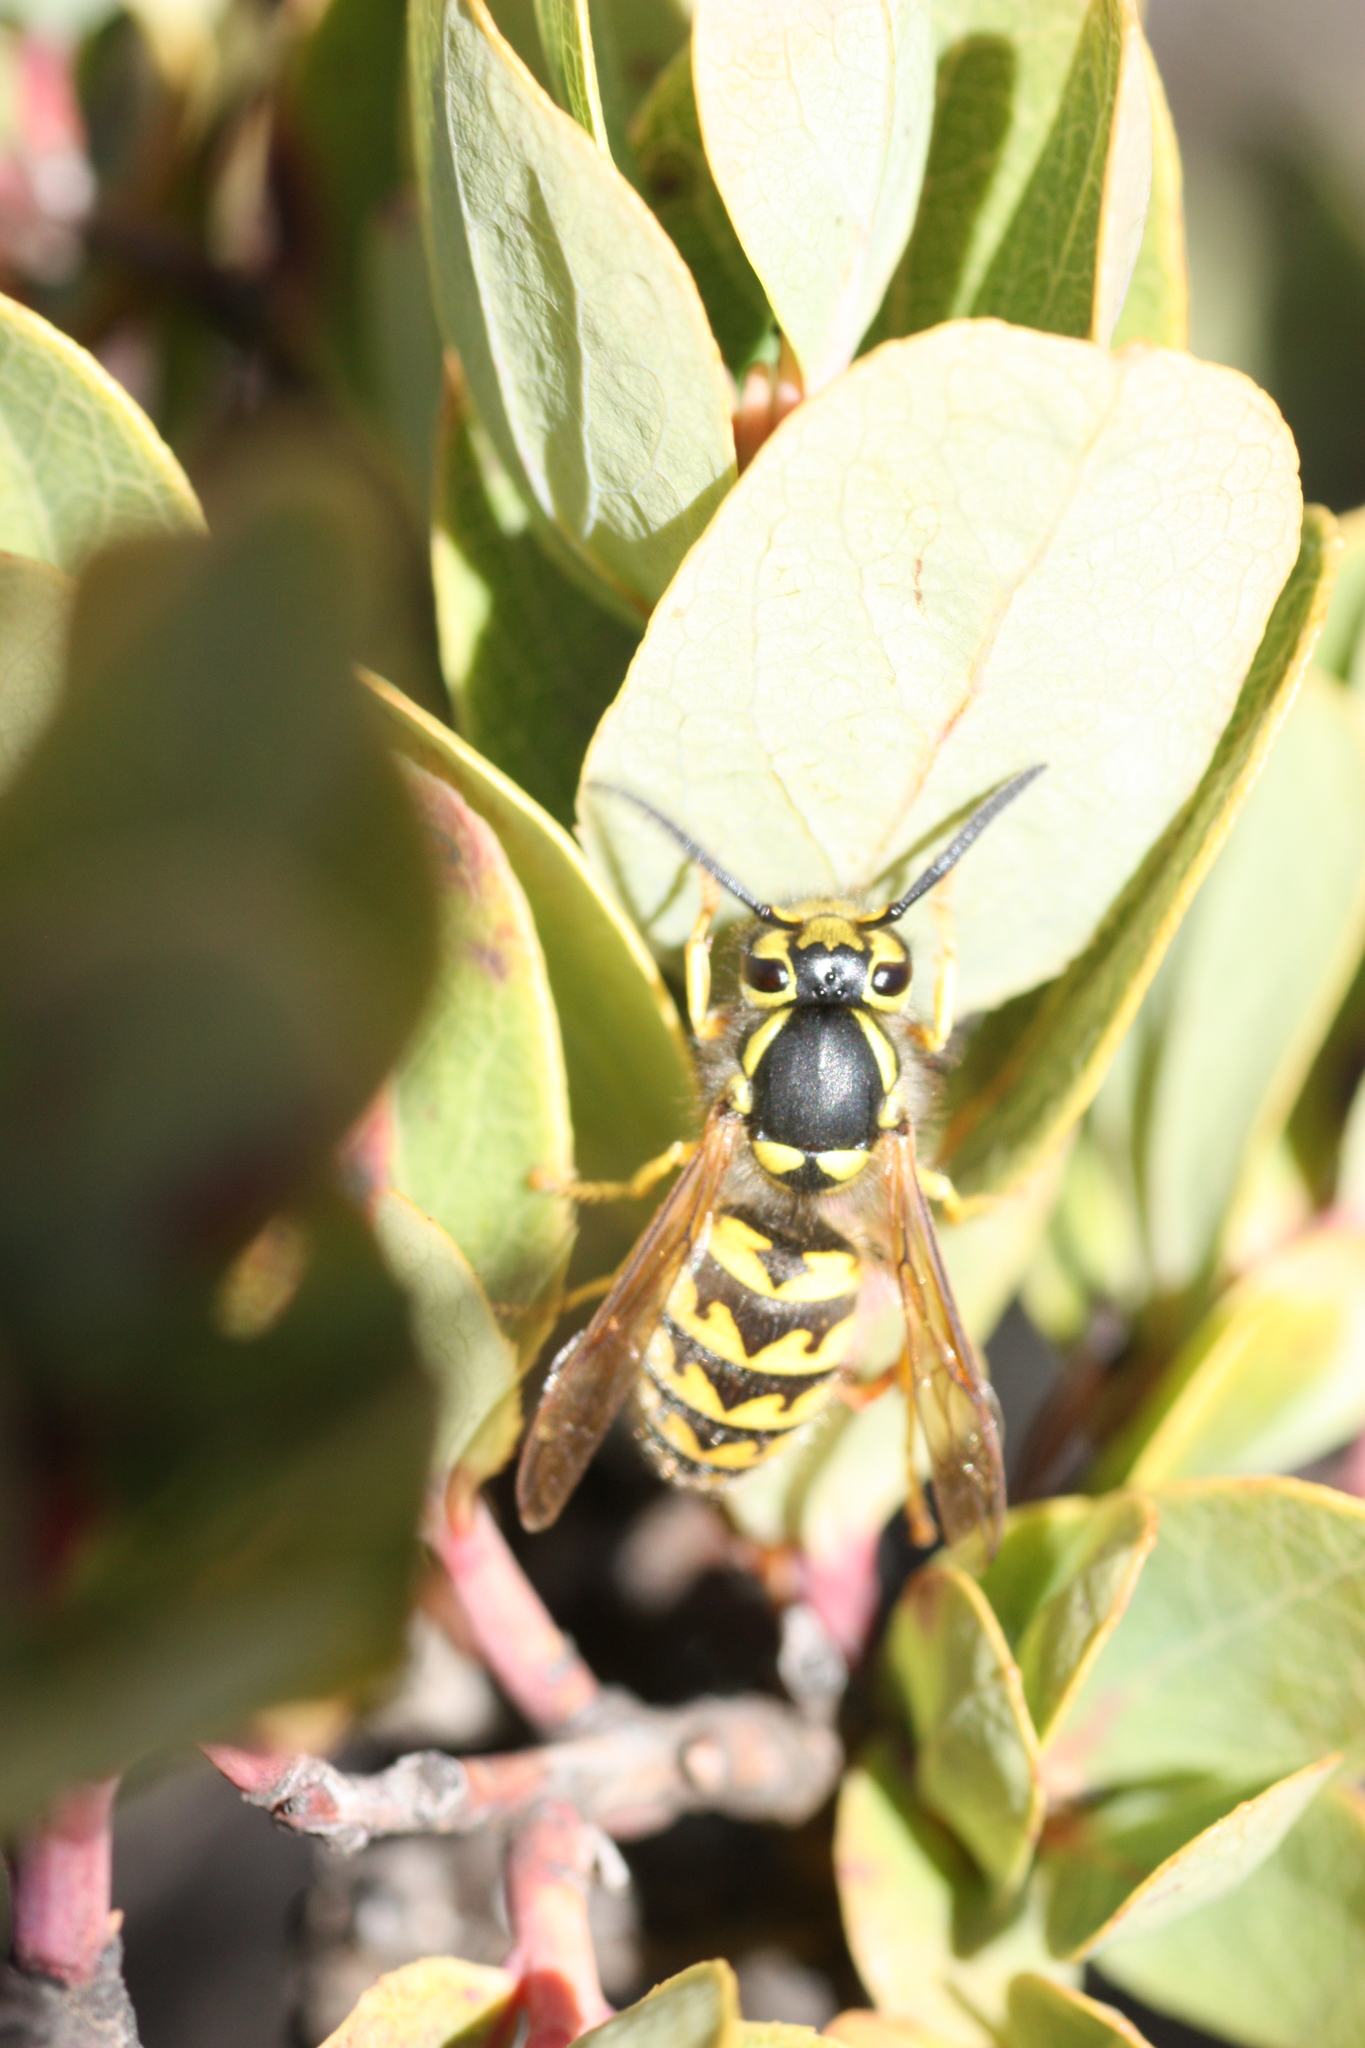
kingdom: Animalia
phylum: Arthropoda
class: Insecta
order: Hymenoptera
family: Vespidae
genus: Vespula
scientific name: Vespula pensylvanica
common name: Western yellowjacket
